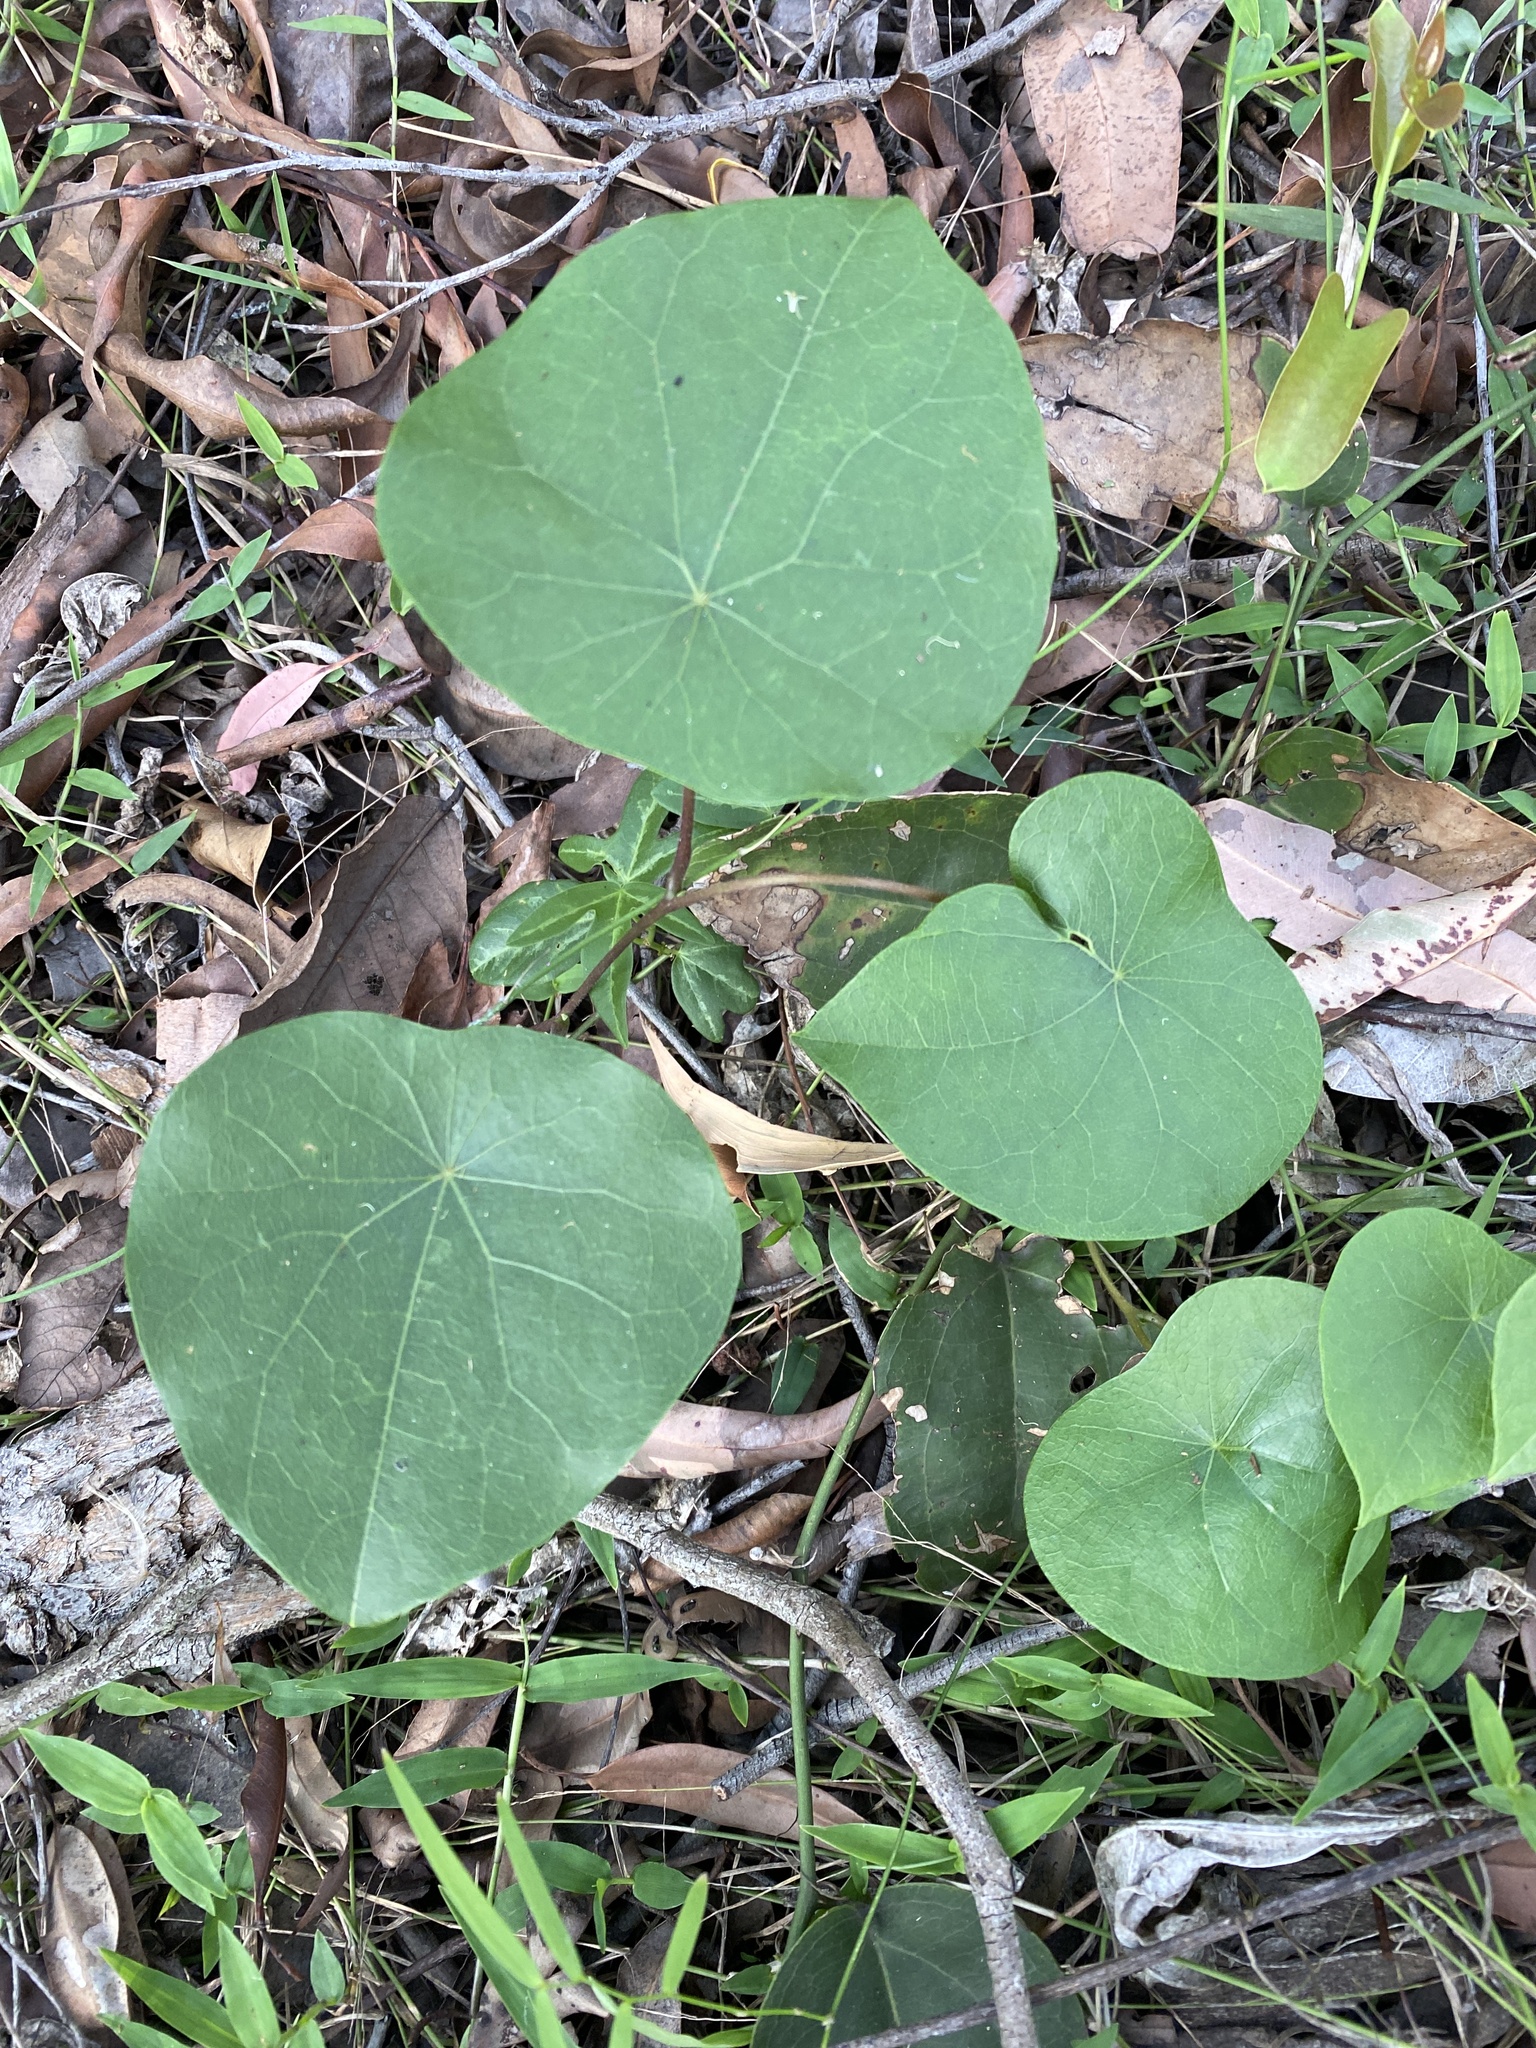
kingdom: Plantae
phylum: Tracheophyta
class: Magnoliopsida
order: Ranunculales
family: Menispermaceae
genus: Stephania
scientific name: Stephania japonica
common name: Snake vine
